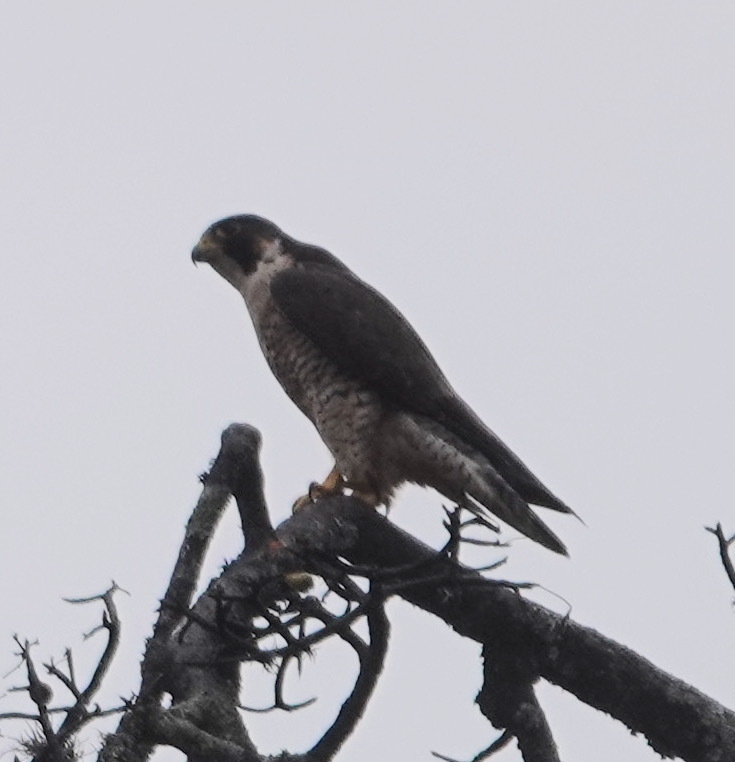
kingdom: Animalia
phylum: Chordata
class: Aves
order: Falconiformes
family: Falconidae
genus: Falco
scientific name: Falco peregrinus
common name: Peregrine falcon
